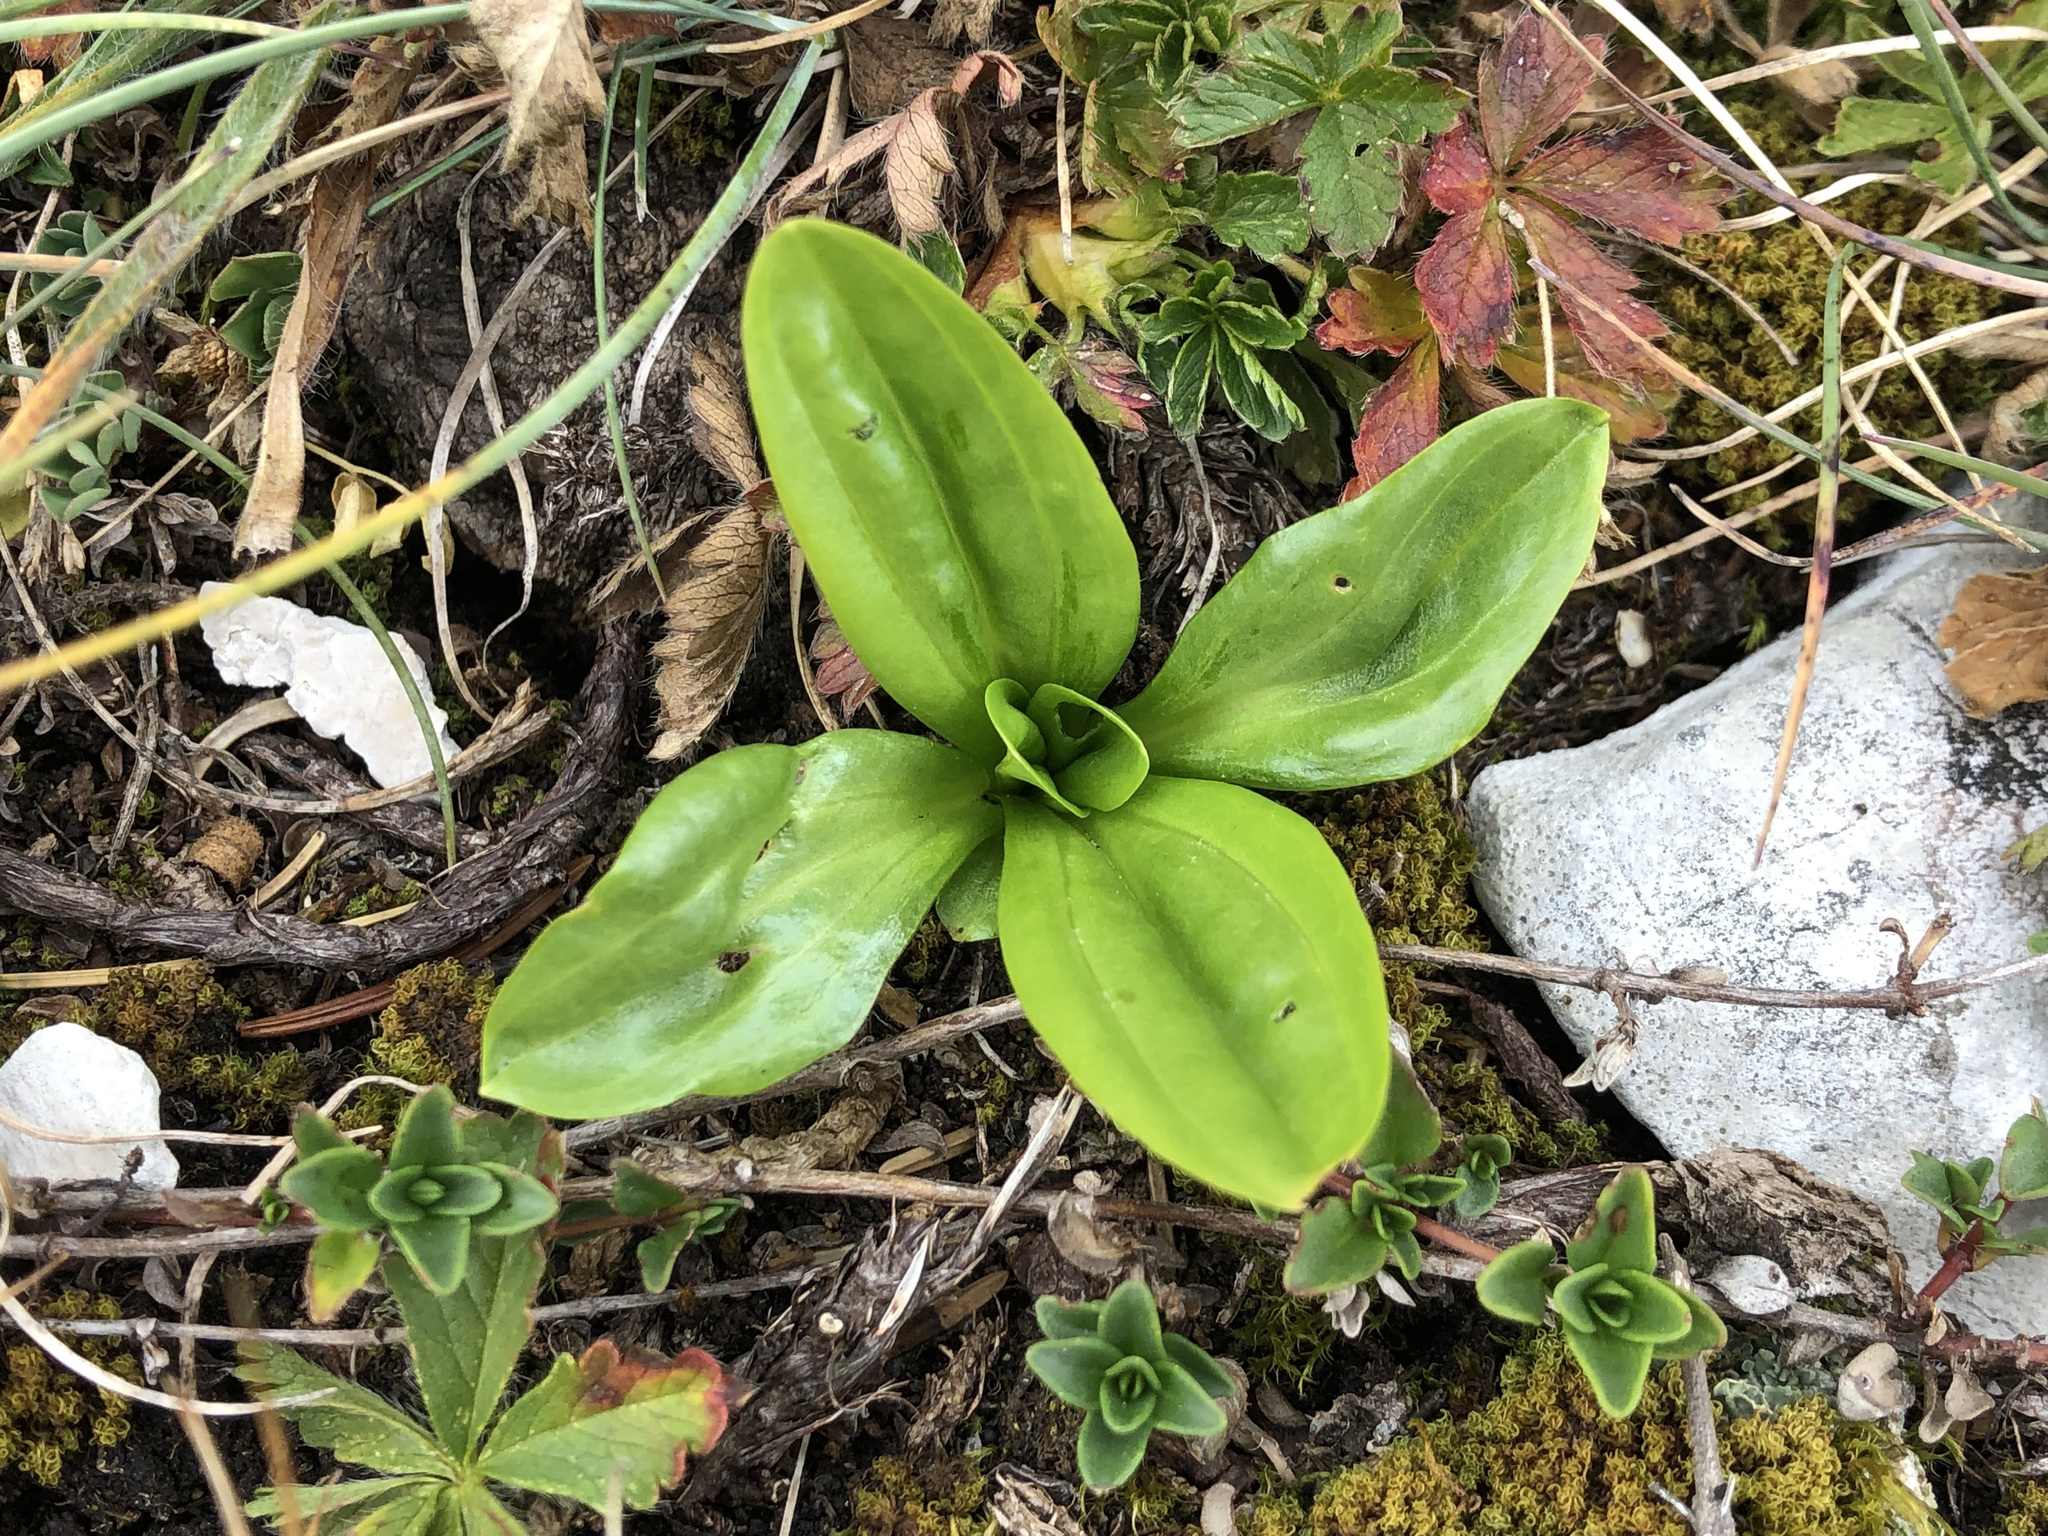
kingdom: Plantae
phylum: Tracheophyta
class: Magnoliopsida
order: Gentianales
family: Gentianaceae
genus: Gentiana
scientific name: Gentiana lutea
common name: Great yellow gentian
